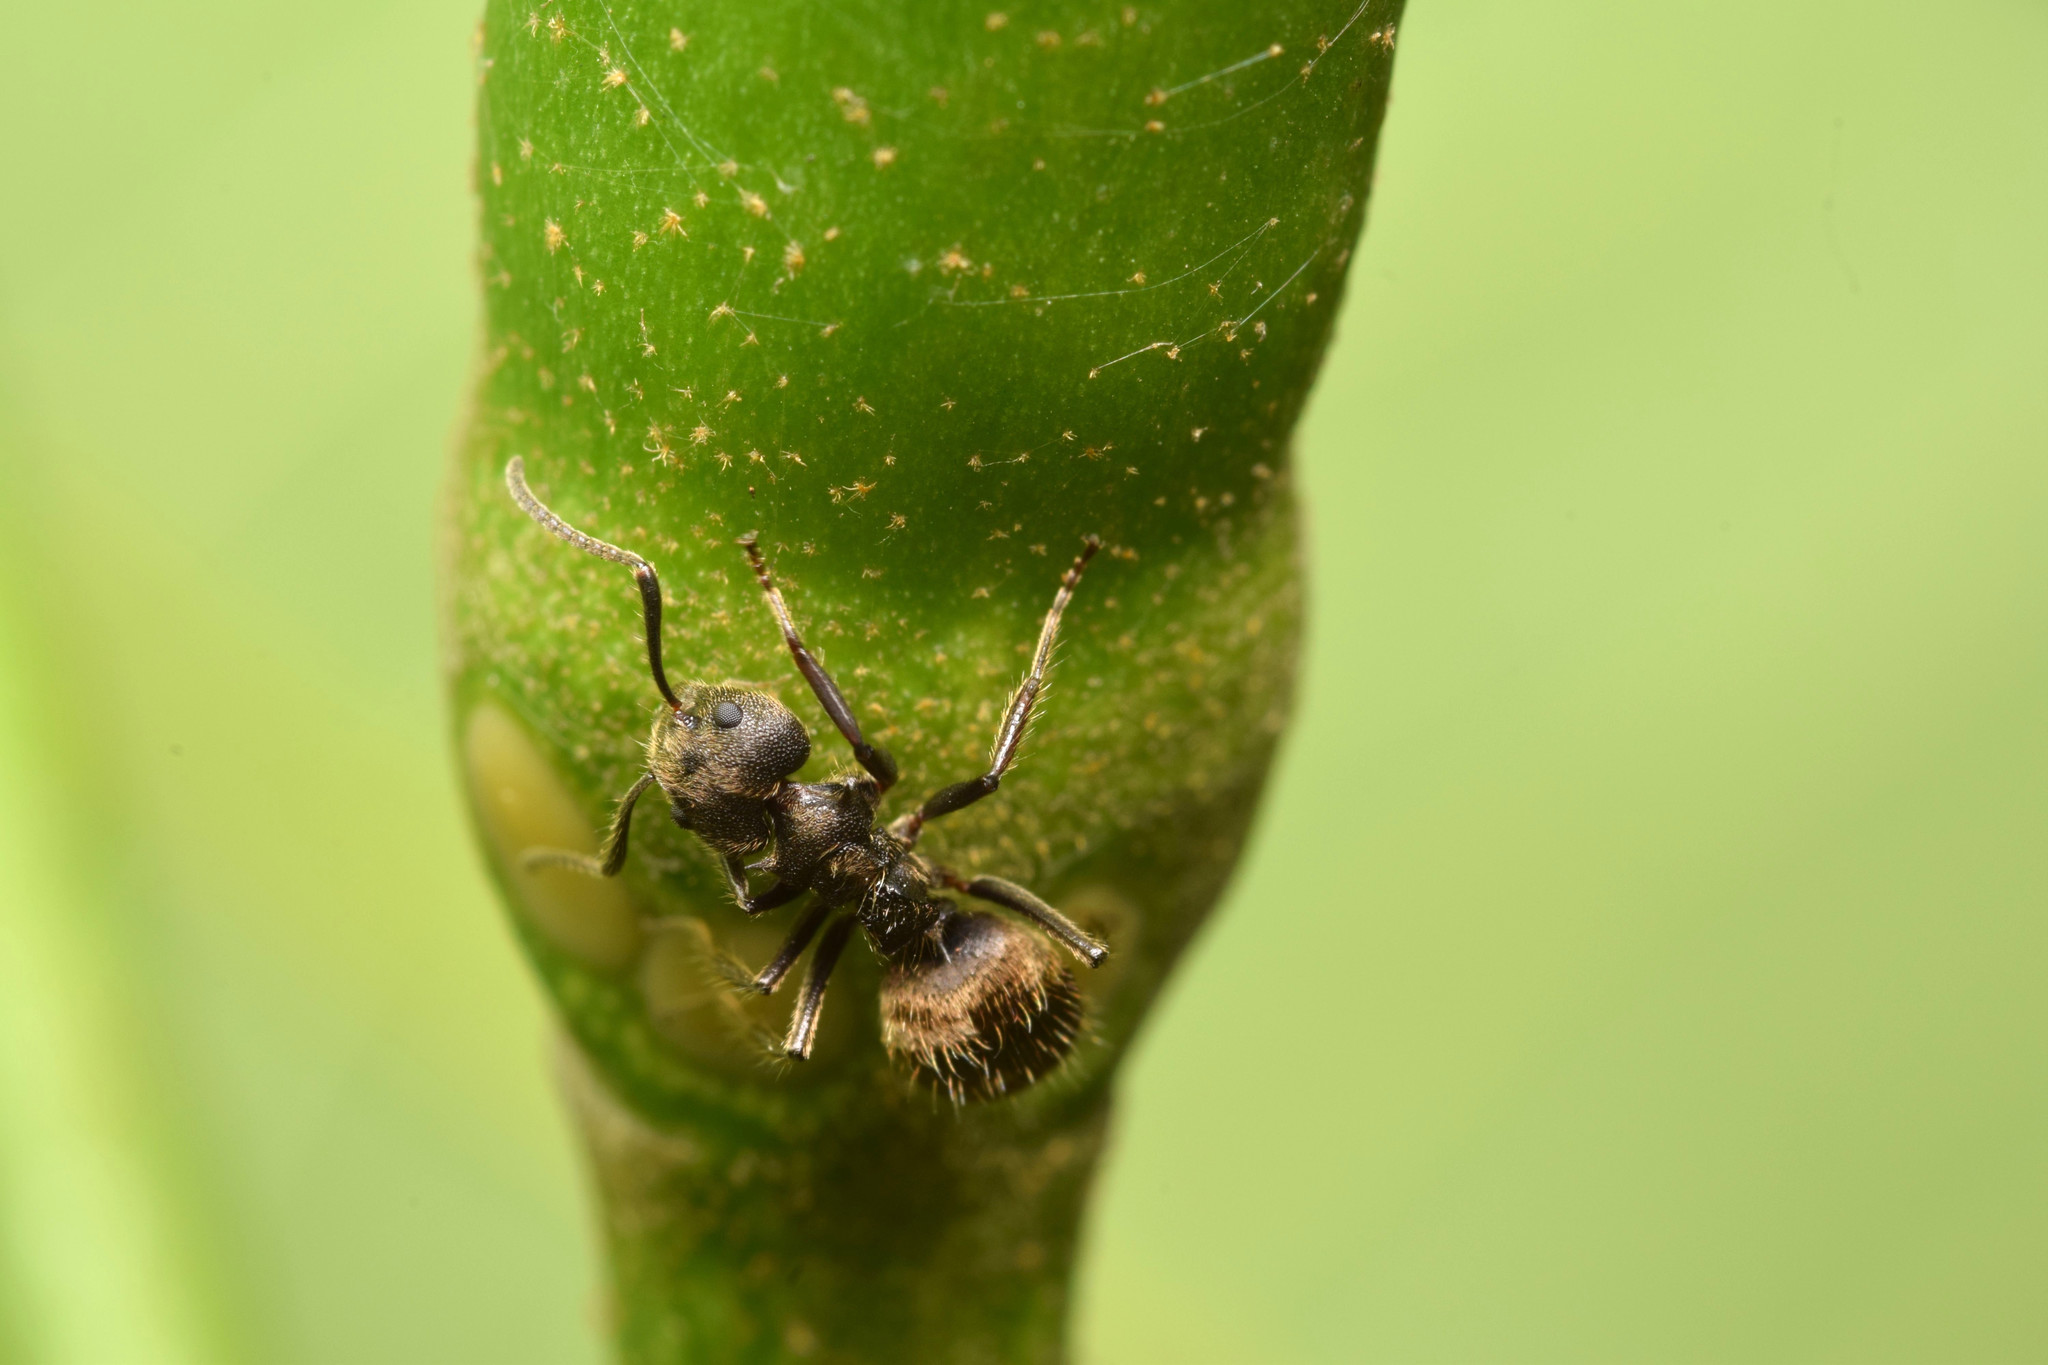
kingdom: Animalia
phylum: Arthropoda
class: Insecta
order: Hymenoptera
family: Formicidae
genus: Dolichoderus
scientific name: Dolichoderus bispinosus
